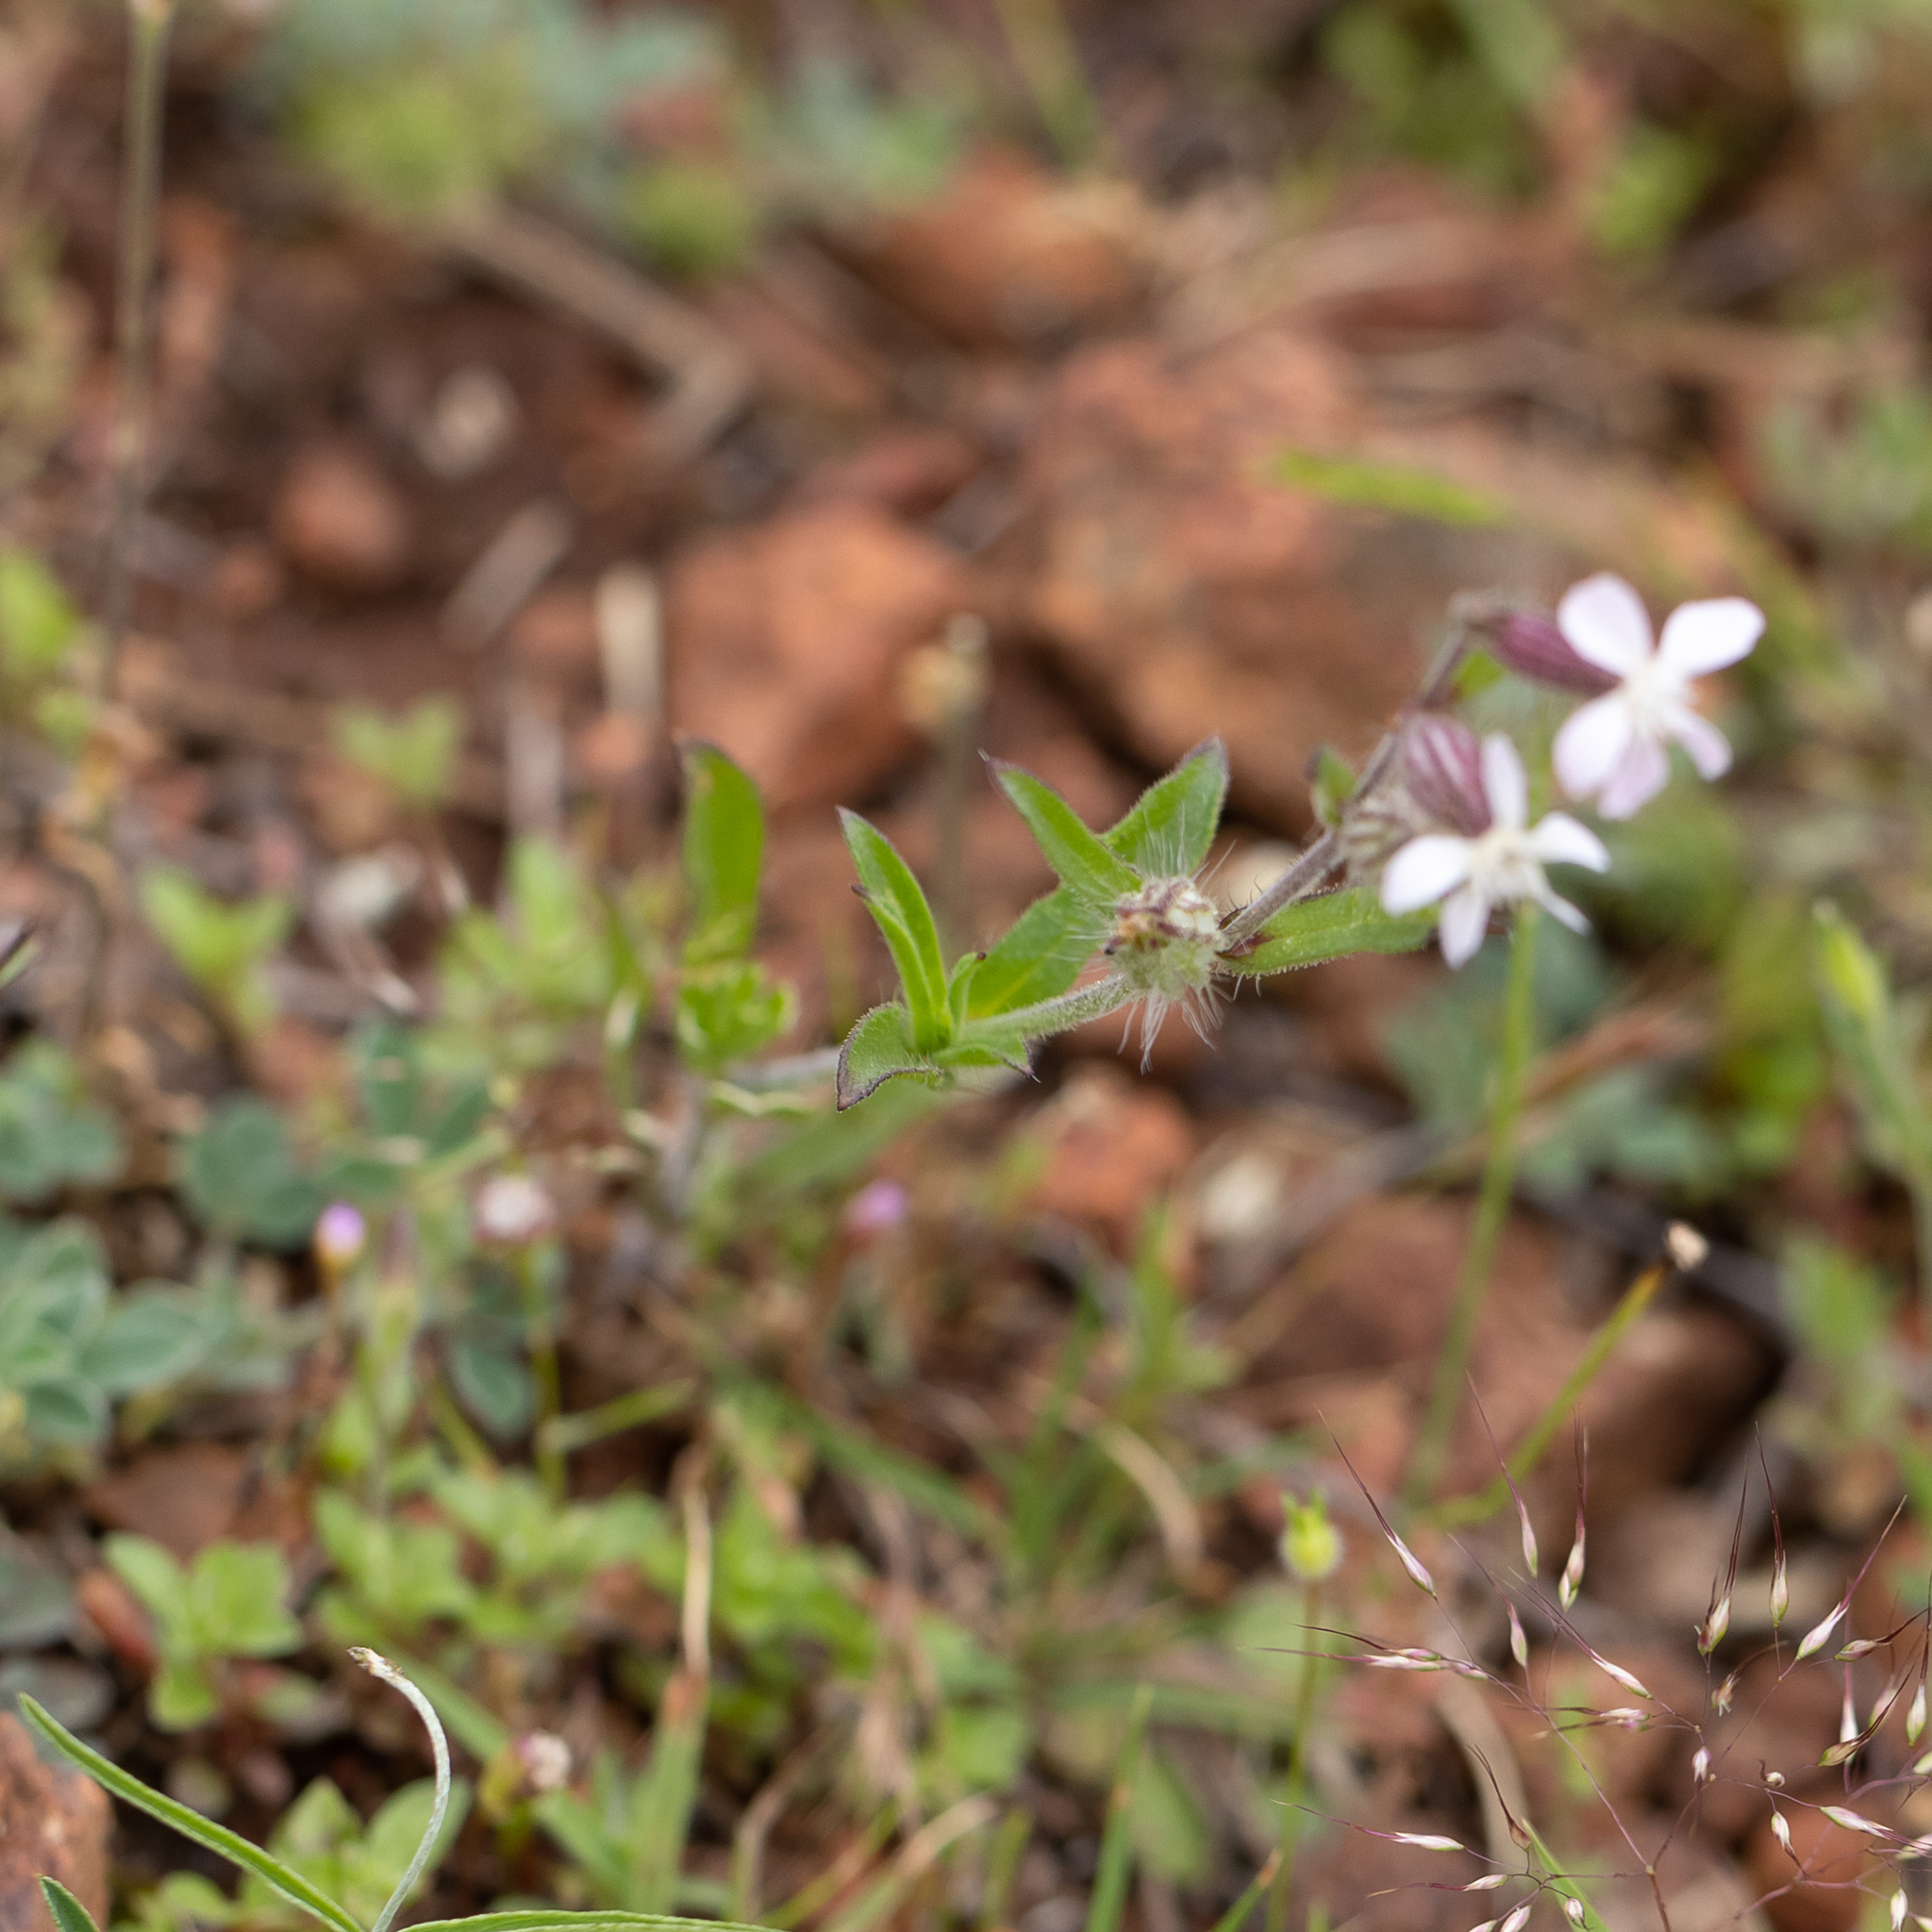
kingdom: Plantae
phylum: Tracheophyta
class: Magnoliopsida
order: Caryophyllales
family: Caryophyllaceae
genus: Silene
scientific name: Silene gallica
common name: Small-flowered catchfly
